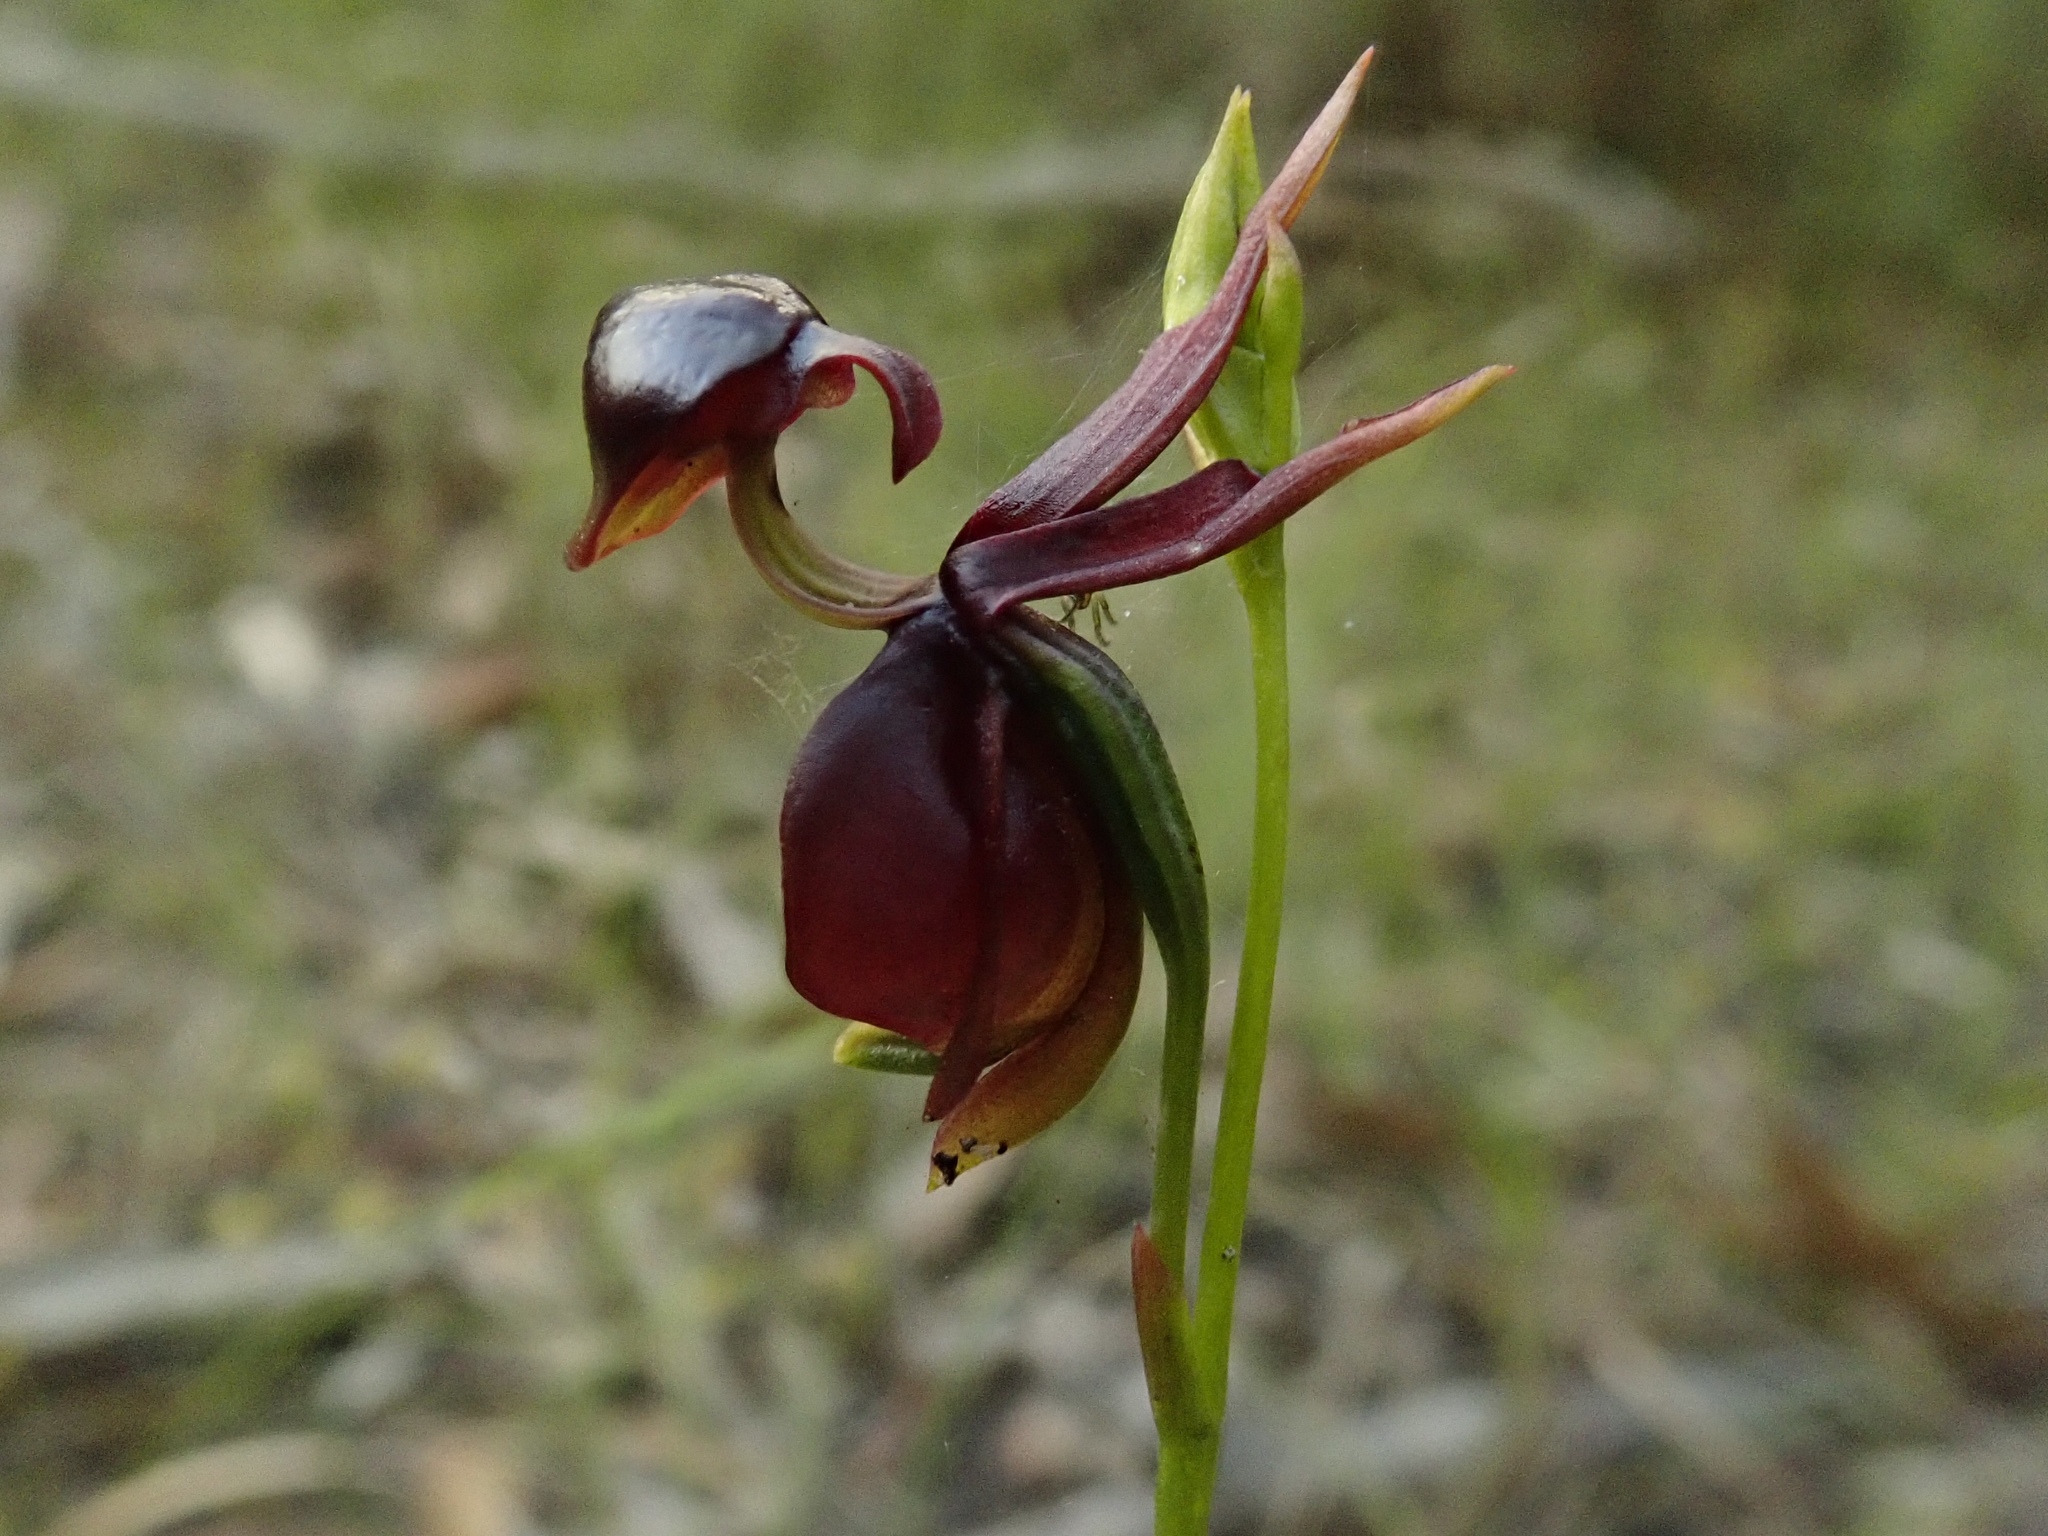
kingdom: Plantae
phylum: Tracheophyta
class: Liliopsida
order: Asparagales
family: Orchidaceae
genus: Caleana
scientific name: Caleana major
